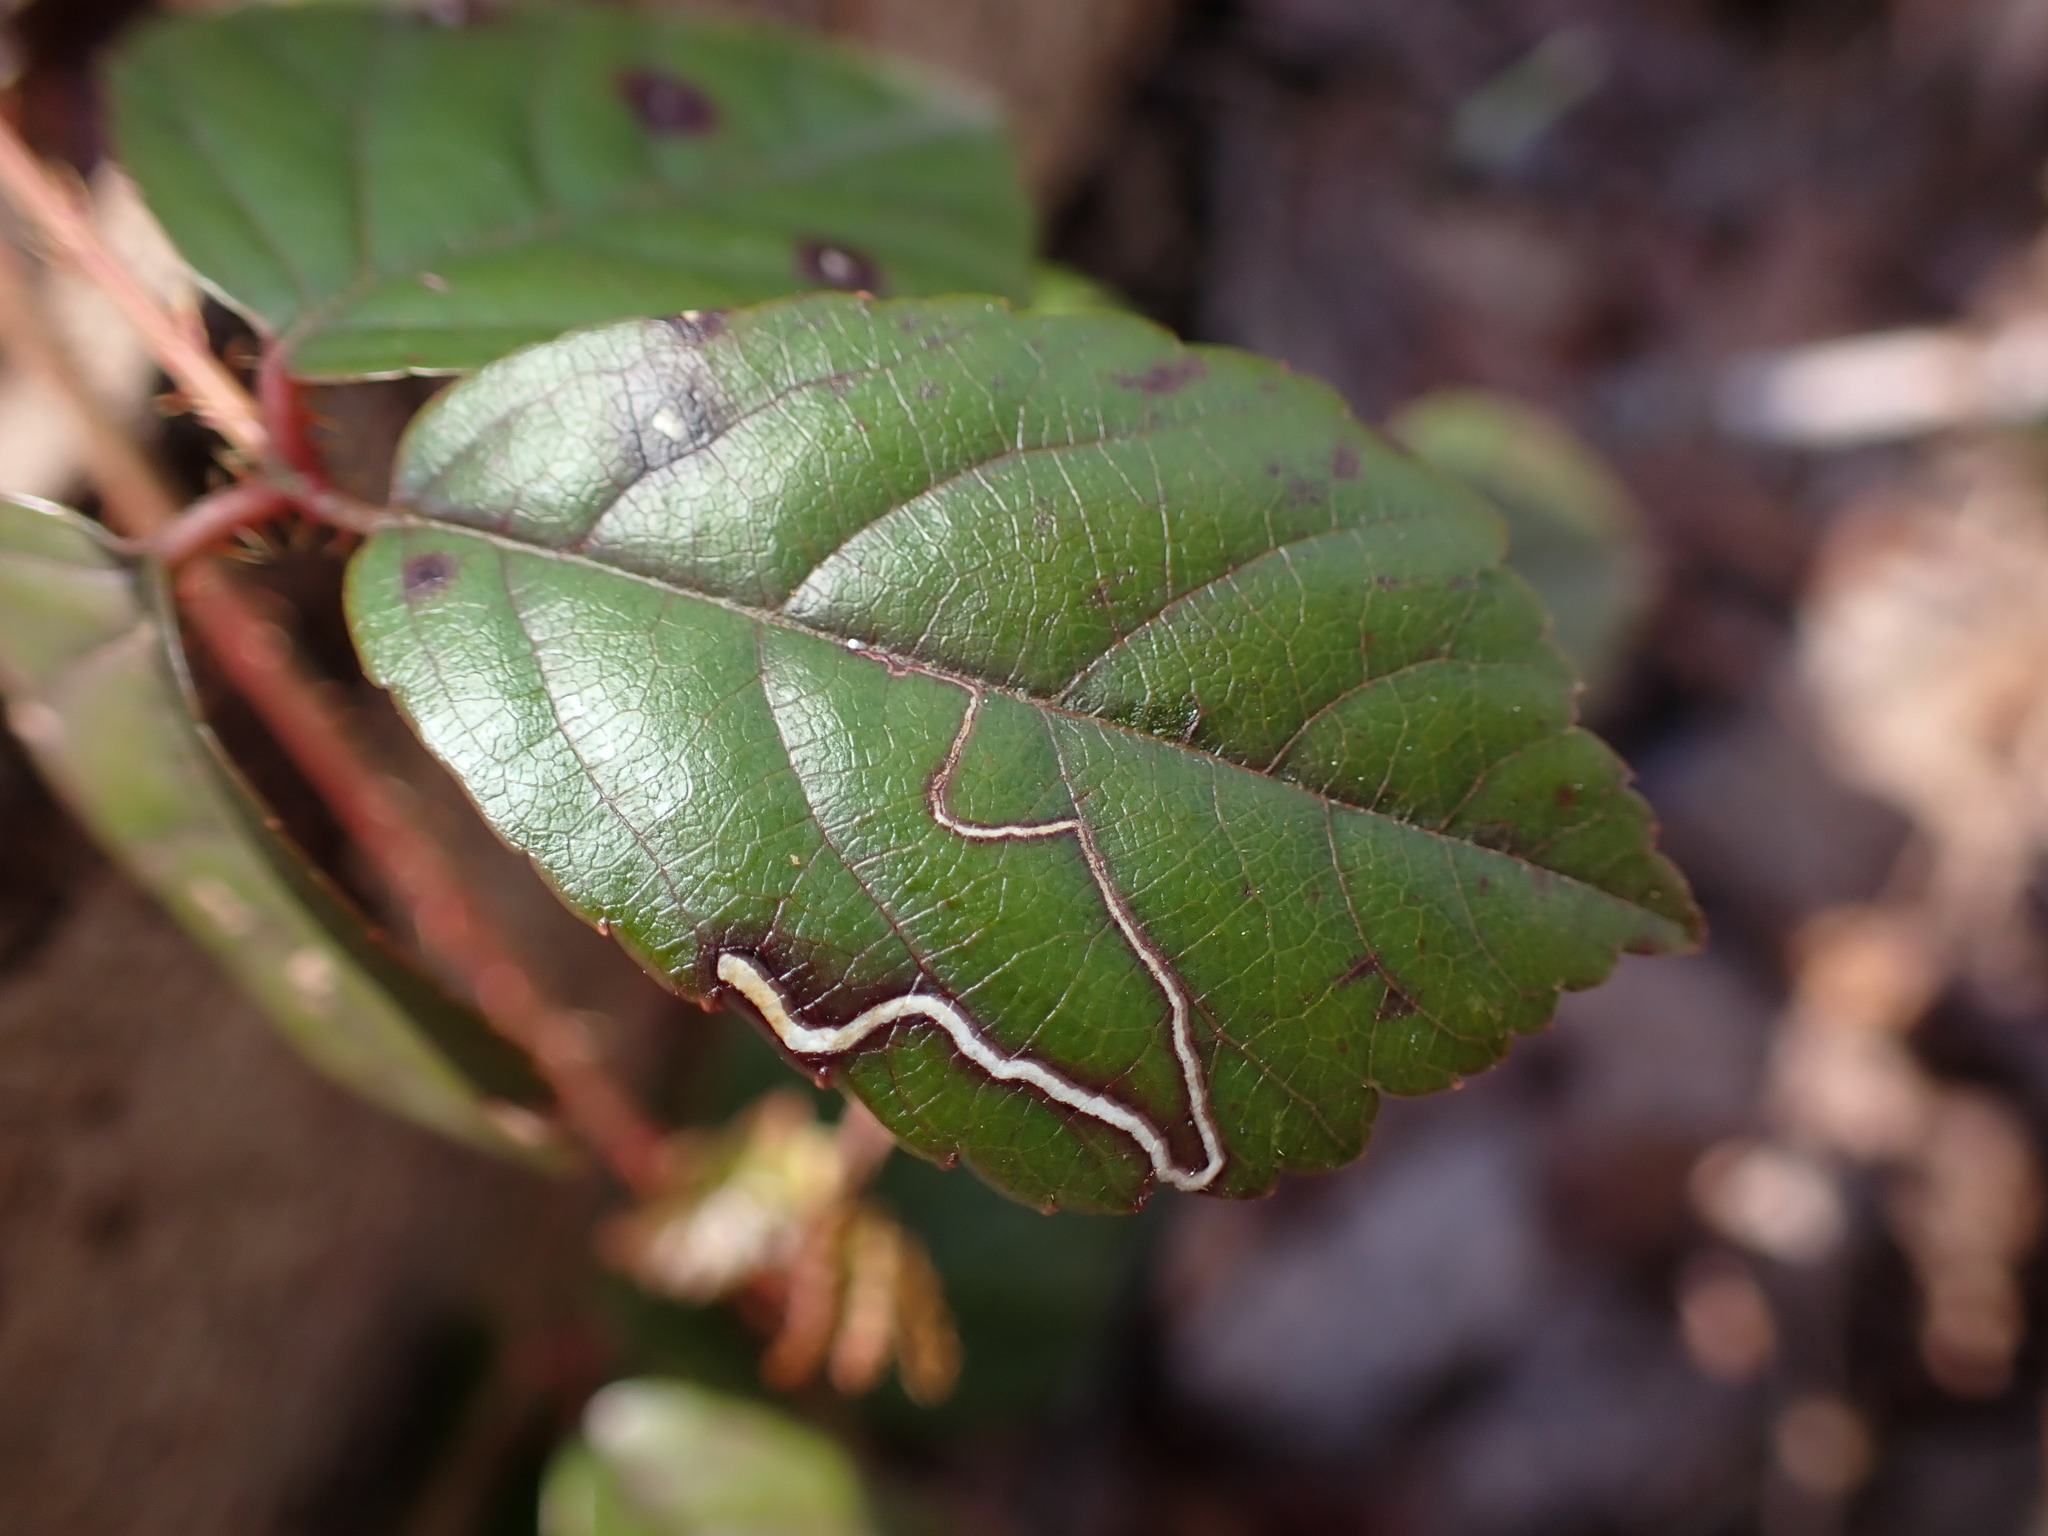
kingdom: Animalia
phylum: Arthropoda
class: Insecta
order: Lepidoptera
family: Nepticulidae
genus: Stigmella
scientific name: Stigmella villosella
